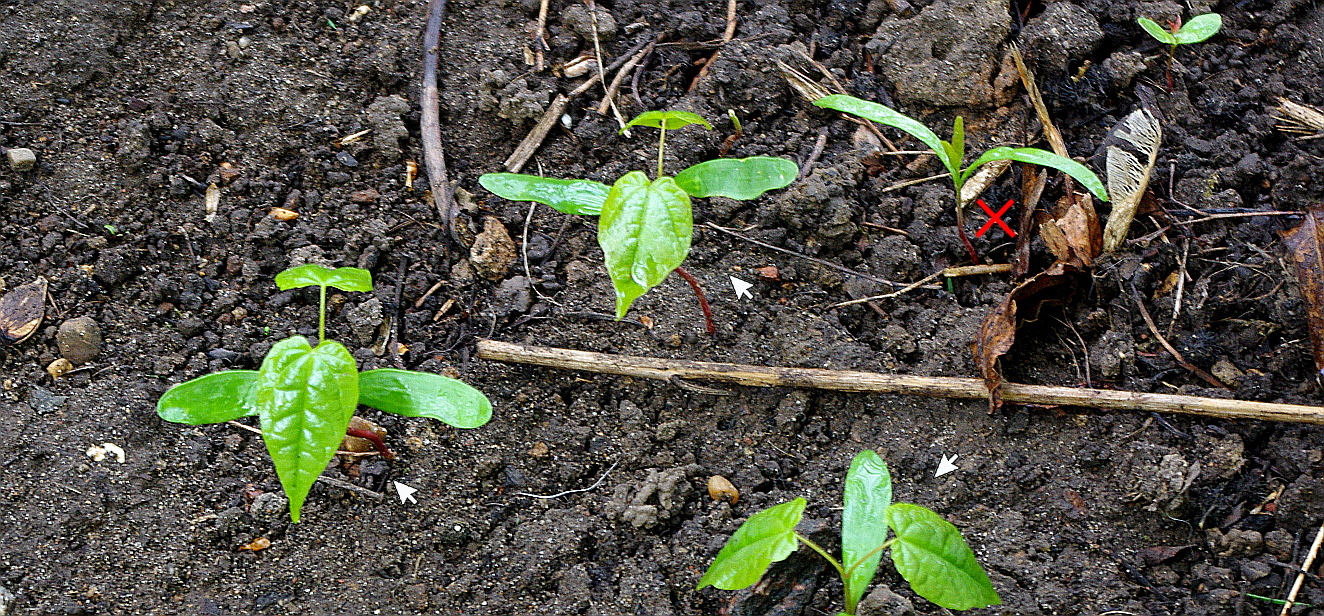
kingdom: Plantae
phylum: Tracheophyta
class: Magnoliopsida
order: Sapindales
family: Sapindaceae
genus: Acer
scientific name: Acer platanoides
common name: Norway maple
